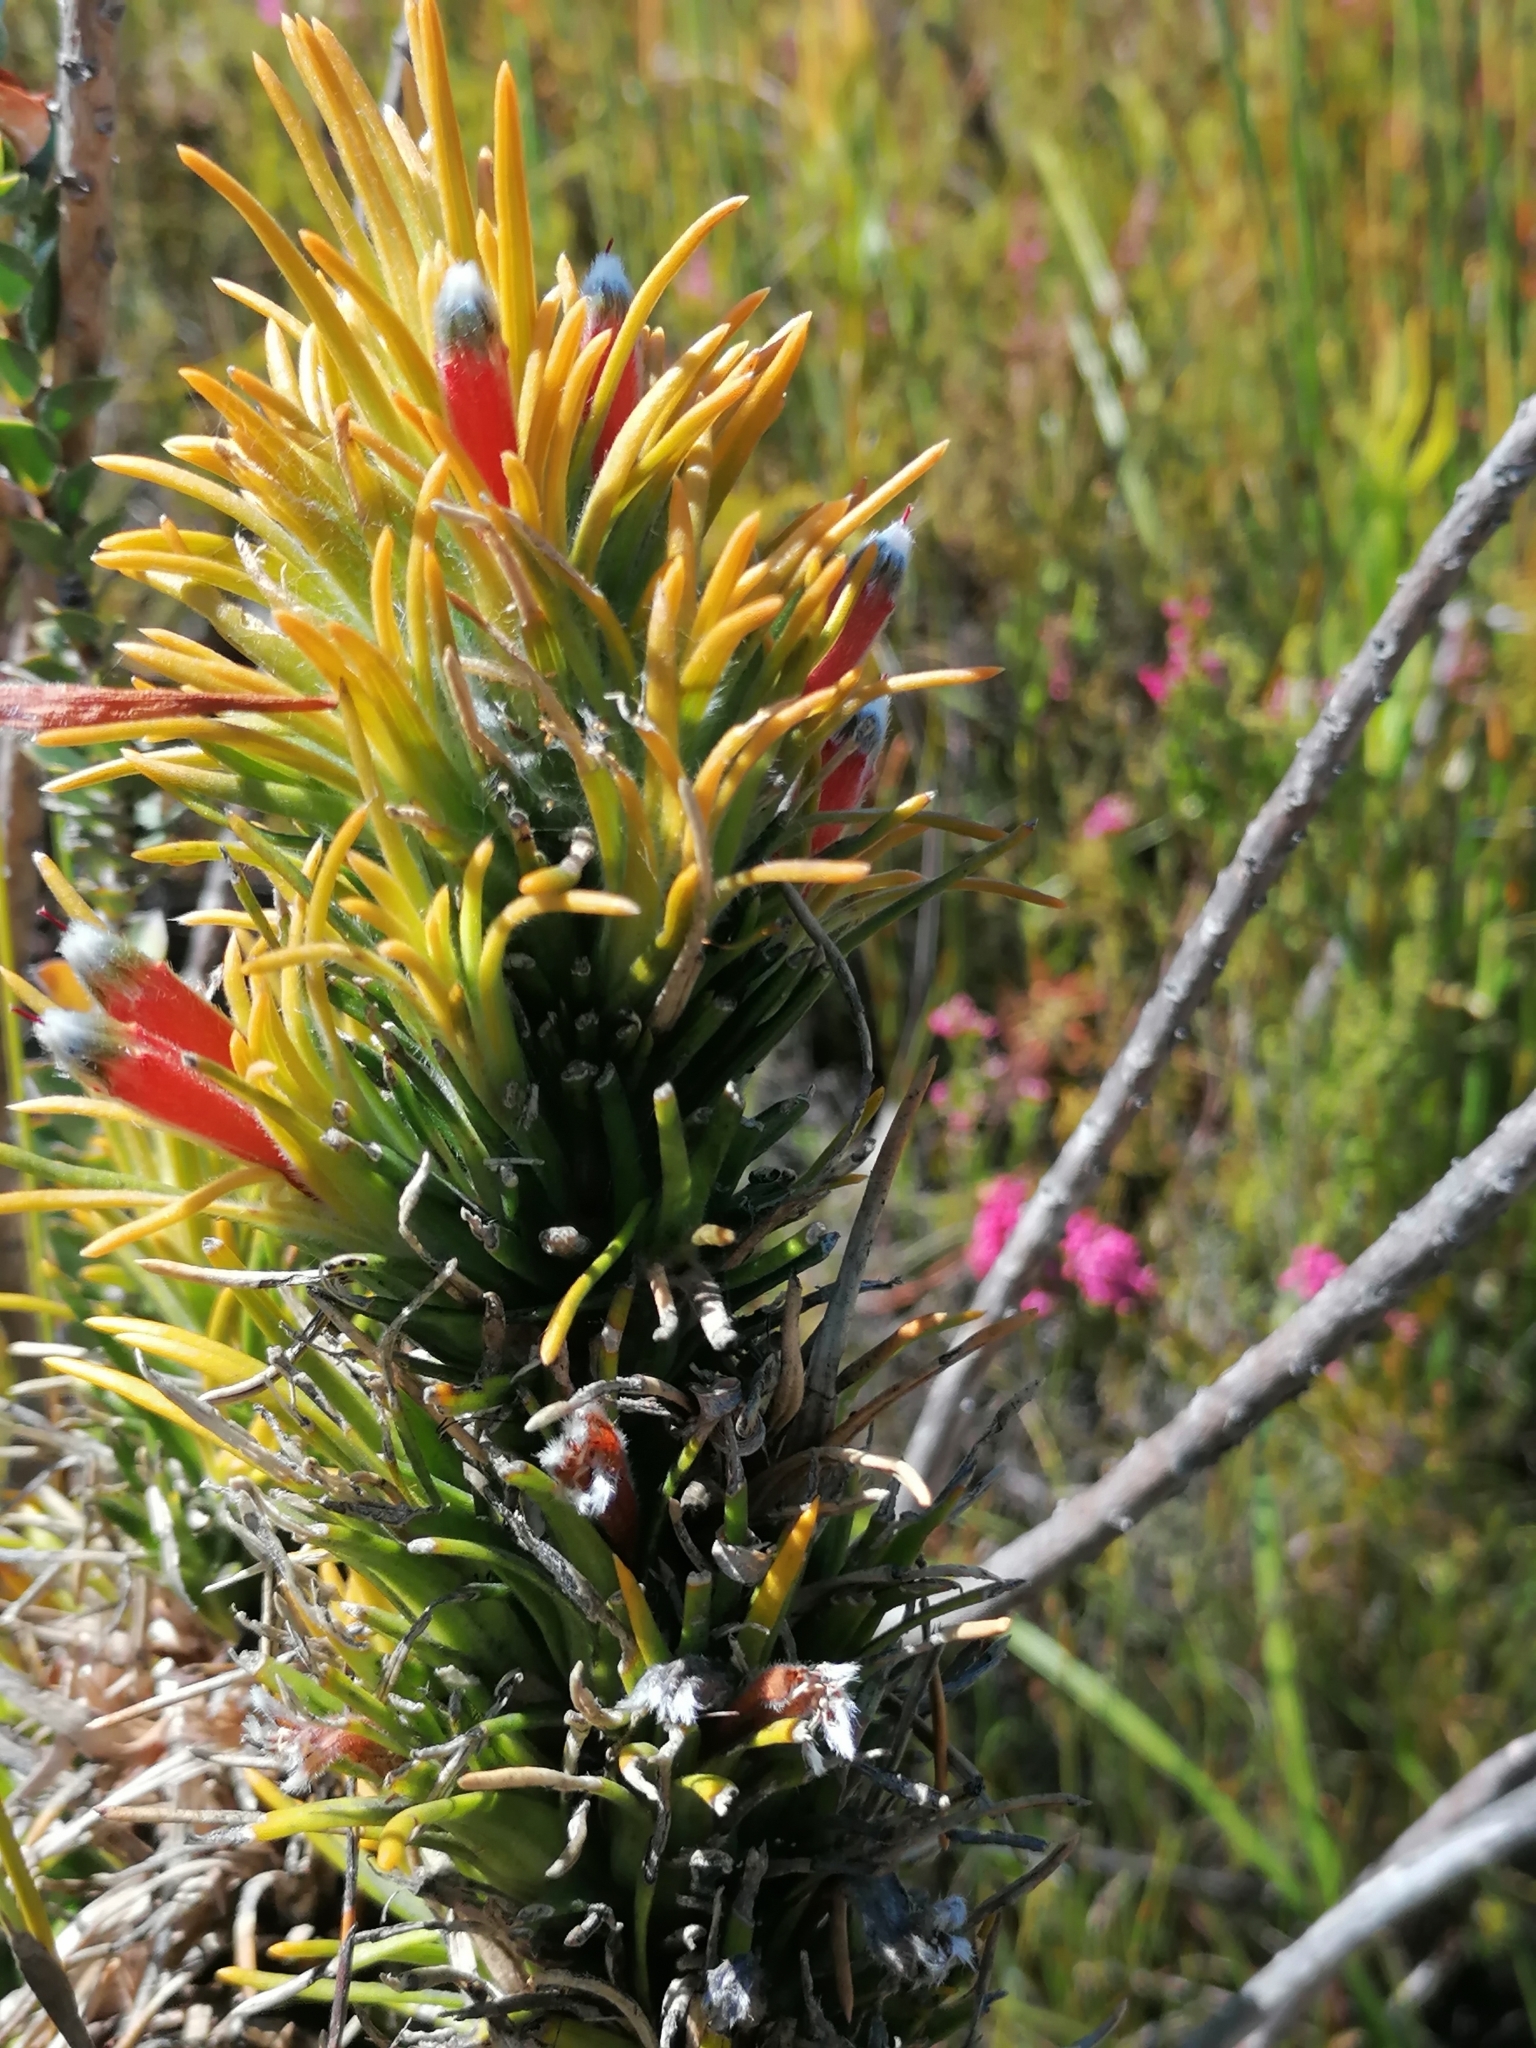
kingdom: Plantae
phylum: Tracheophyta
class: Magnoliopsida
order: Lamiales
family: Stilbaceae
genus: Retzia
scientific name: Retzia capensis
